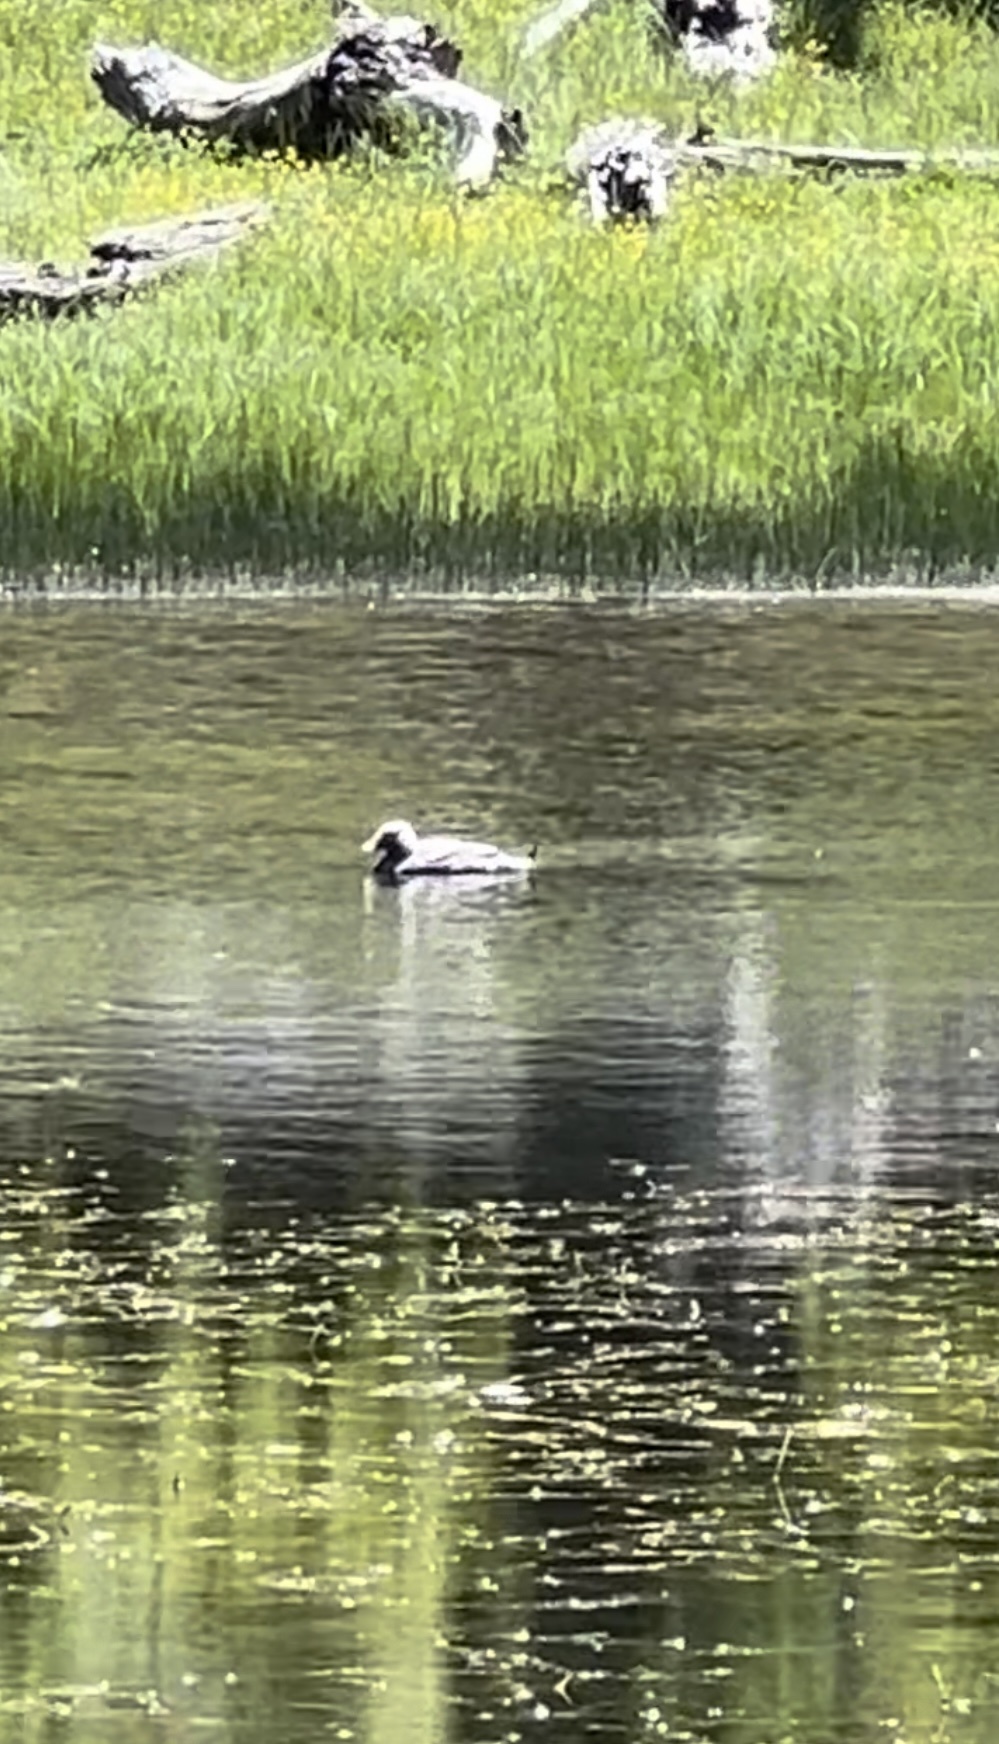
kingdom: Animalia
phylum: Chordata
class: Aves
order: Anseriformes
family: Anatidae
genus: Tachyeres
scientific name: Tachyeres patachonicus
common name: Flying steamer duck
